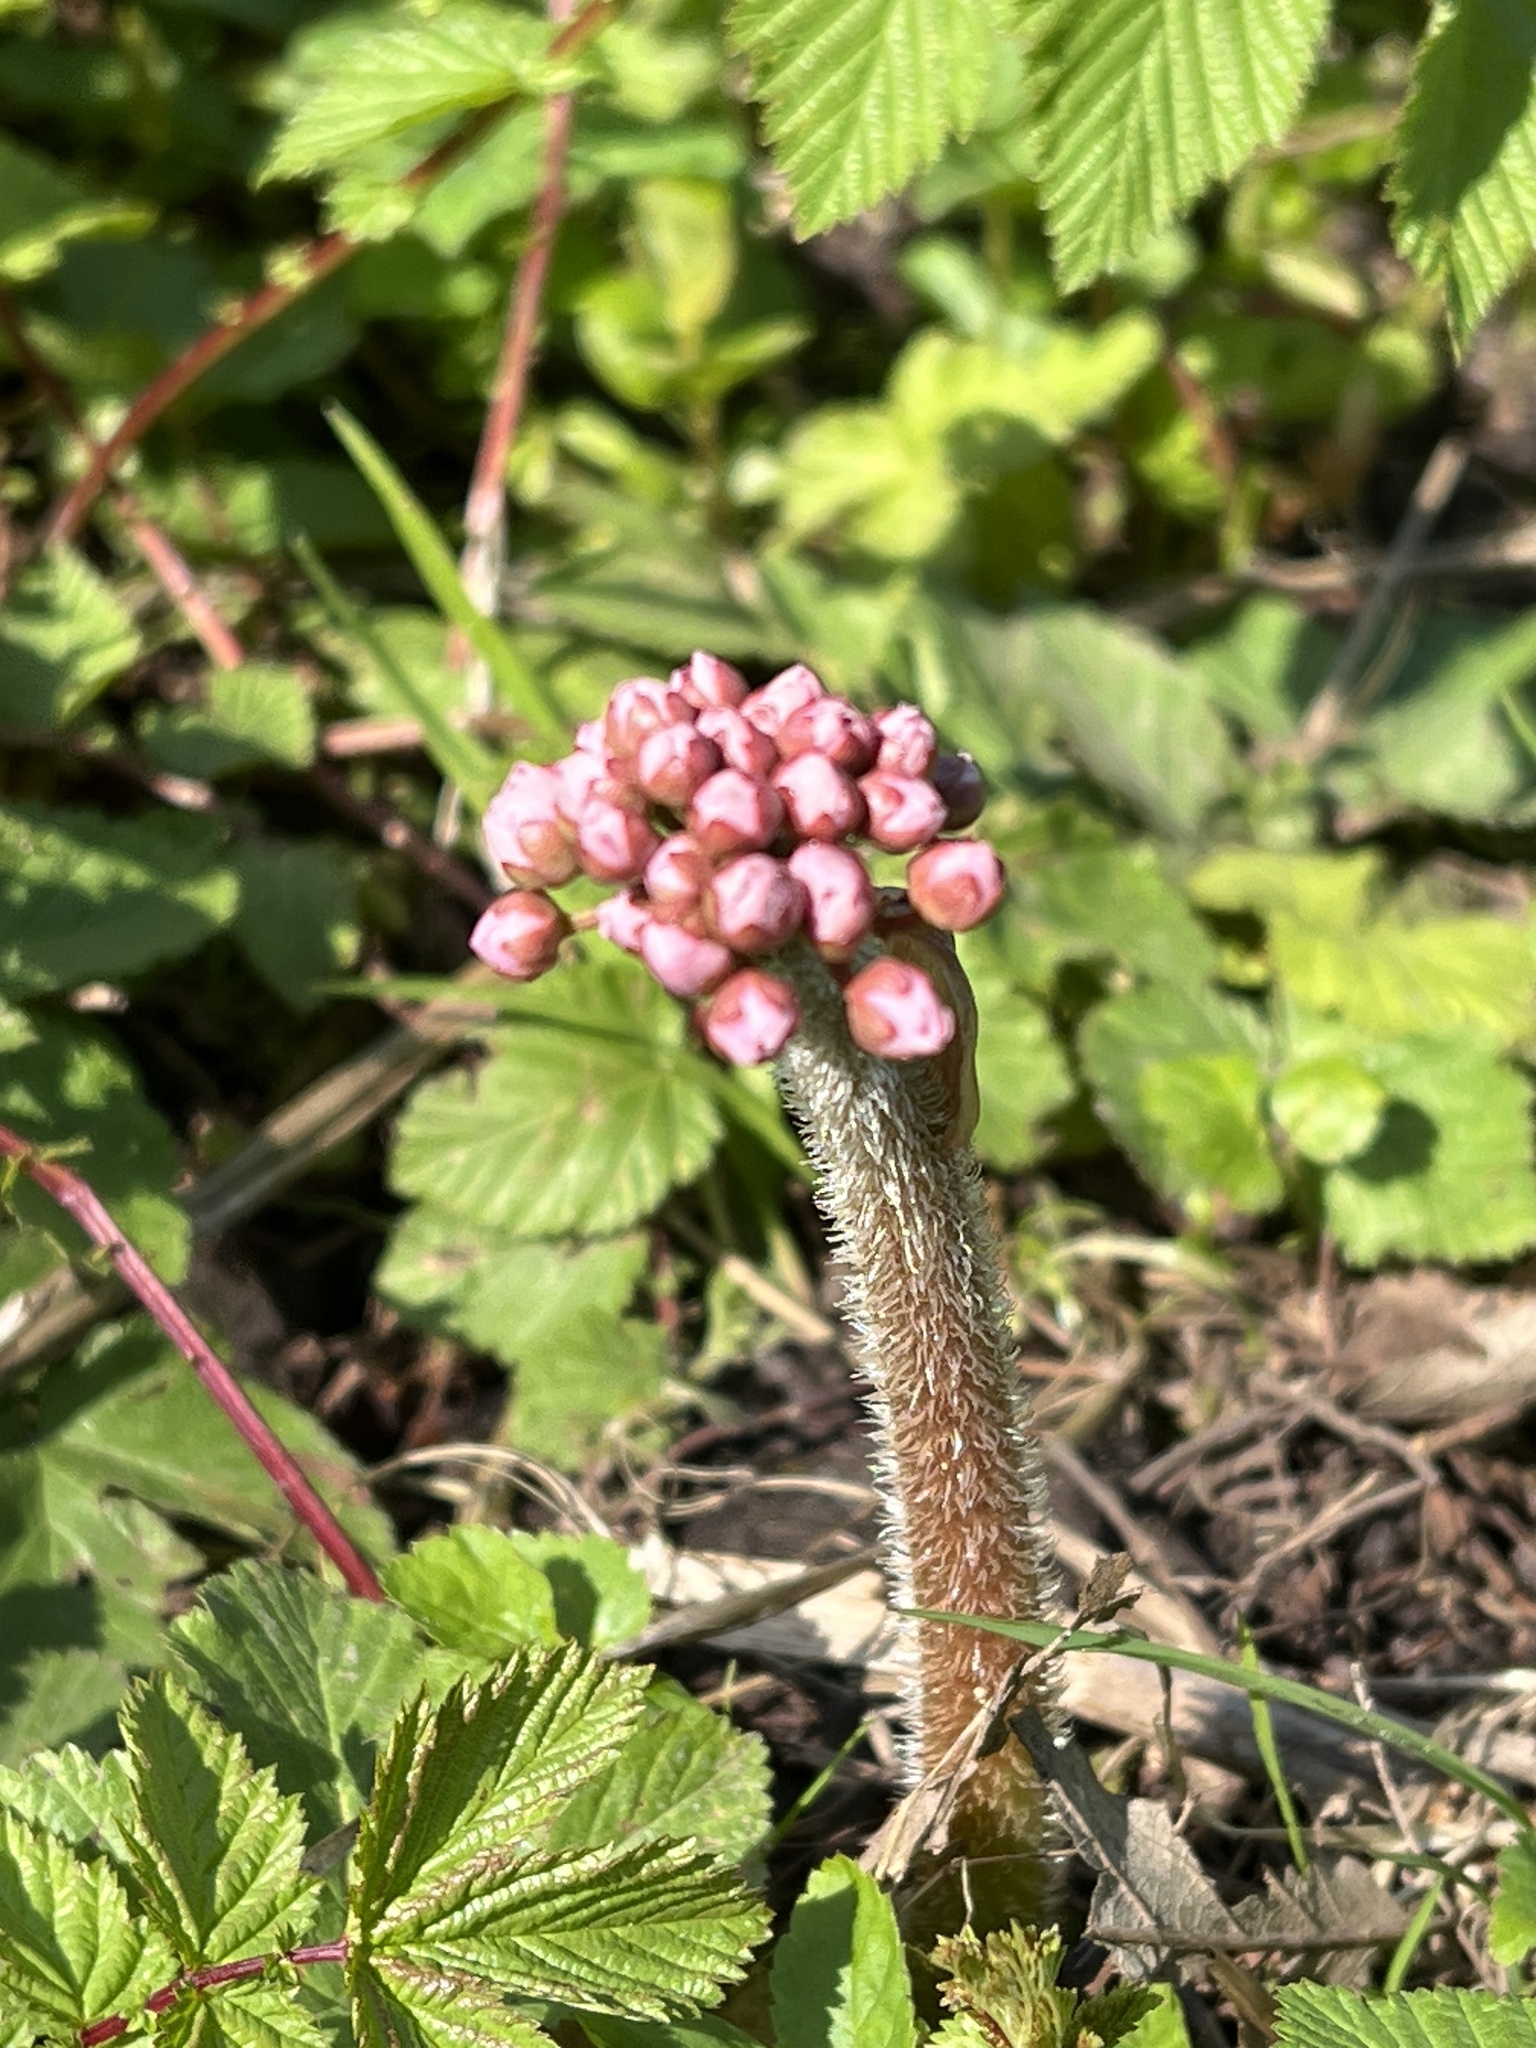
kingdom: Plantae
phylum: Tracheophyta
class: Magnoliopsida
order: Saxifragales
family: Saxifragaceae
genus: Darmera
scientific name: Darmera peltata
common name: Indian-rhubarb
